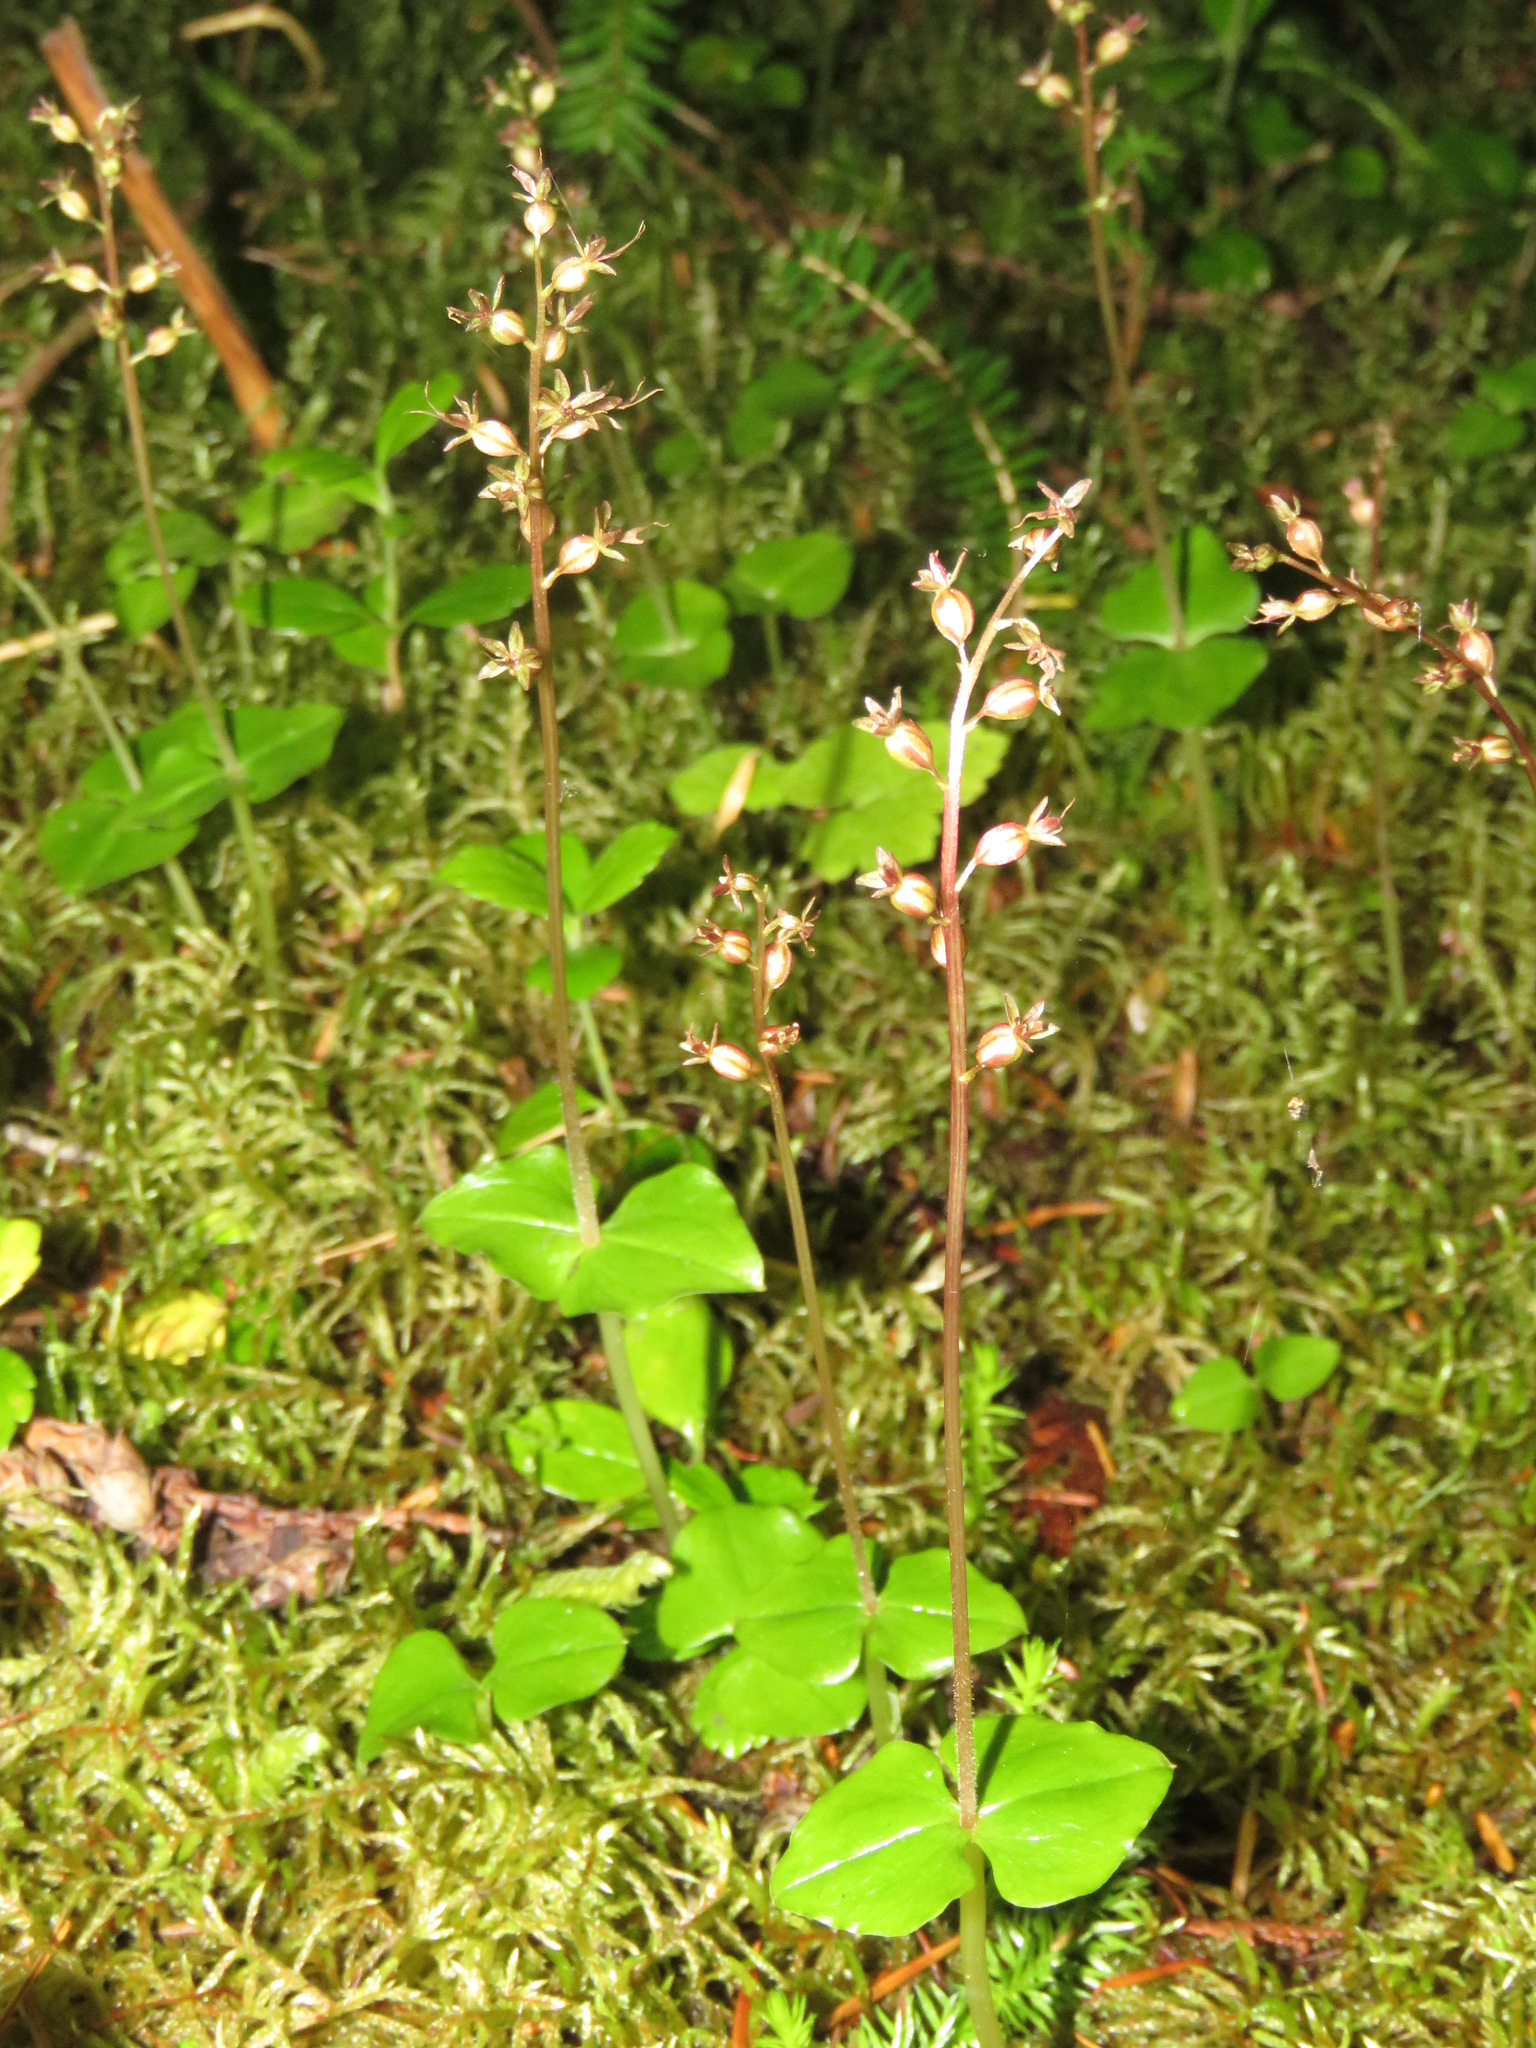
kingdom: Plantae
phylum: Tracheophyta
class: Liliopsida
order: Asparagales
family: Orchidaceae
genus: Neottia
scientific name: Neottia cordata
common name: Lesser twayblade
